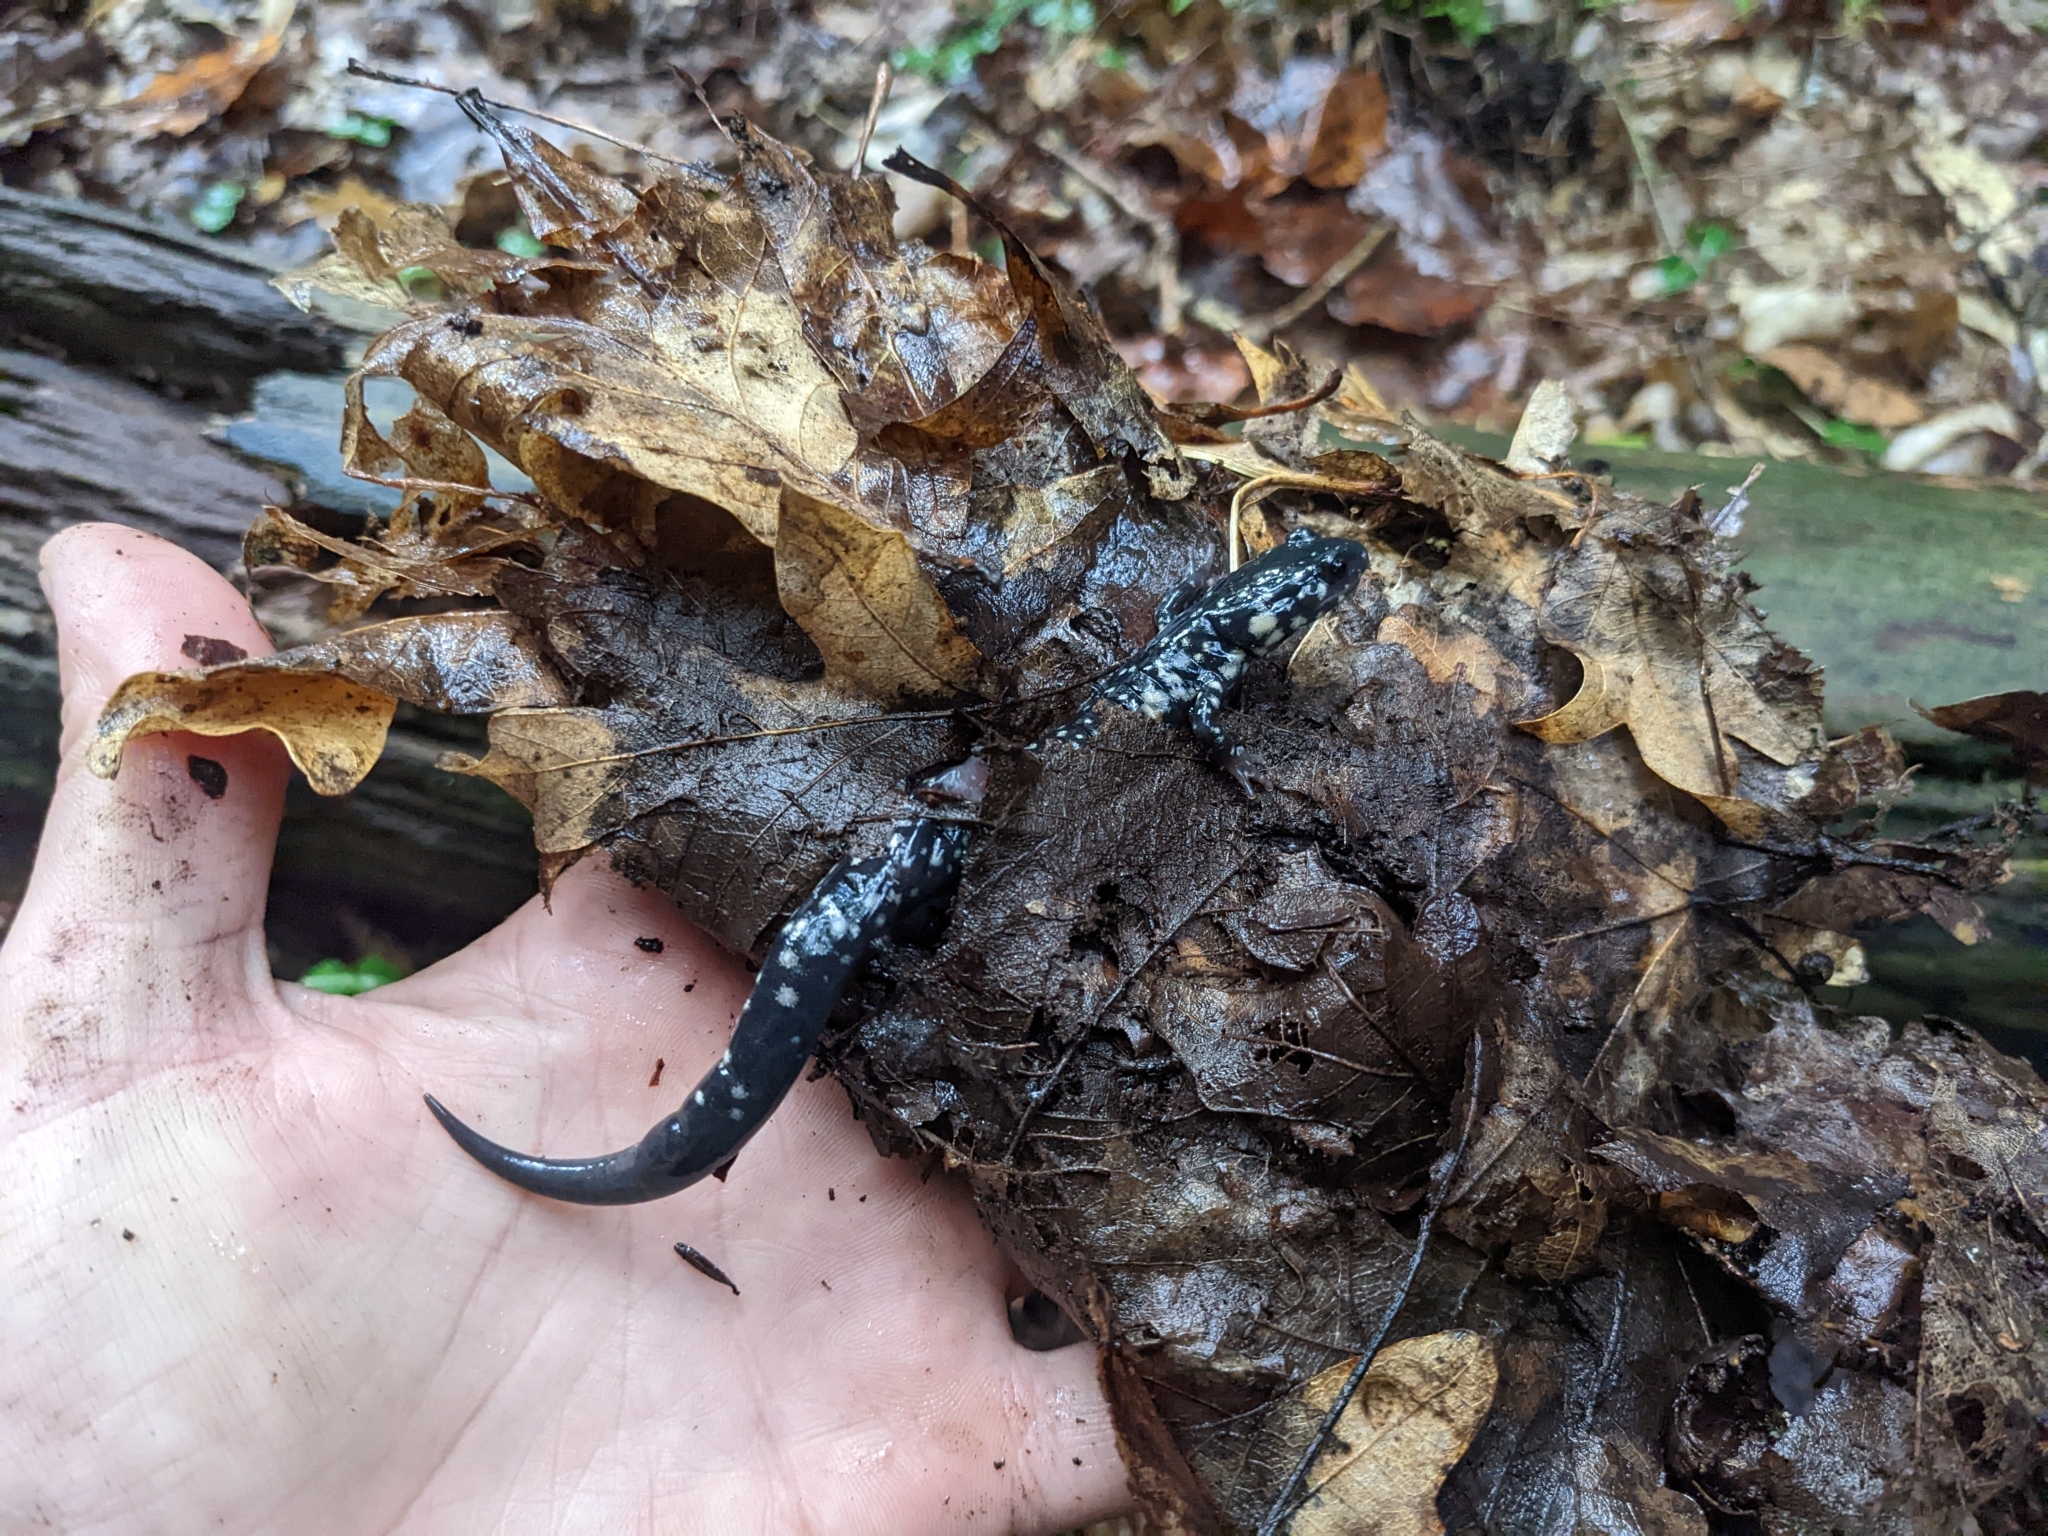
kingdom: Animalia
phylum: Chordata
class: Amphibia
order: Caudata
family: Plethodontidae
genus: Plethodon
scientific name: Plethodon glutinosus
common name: Northern slimy salamander
